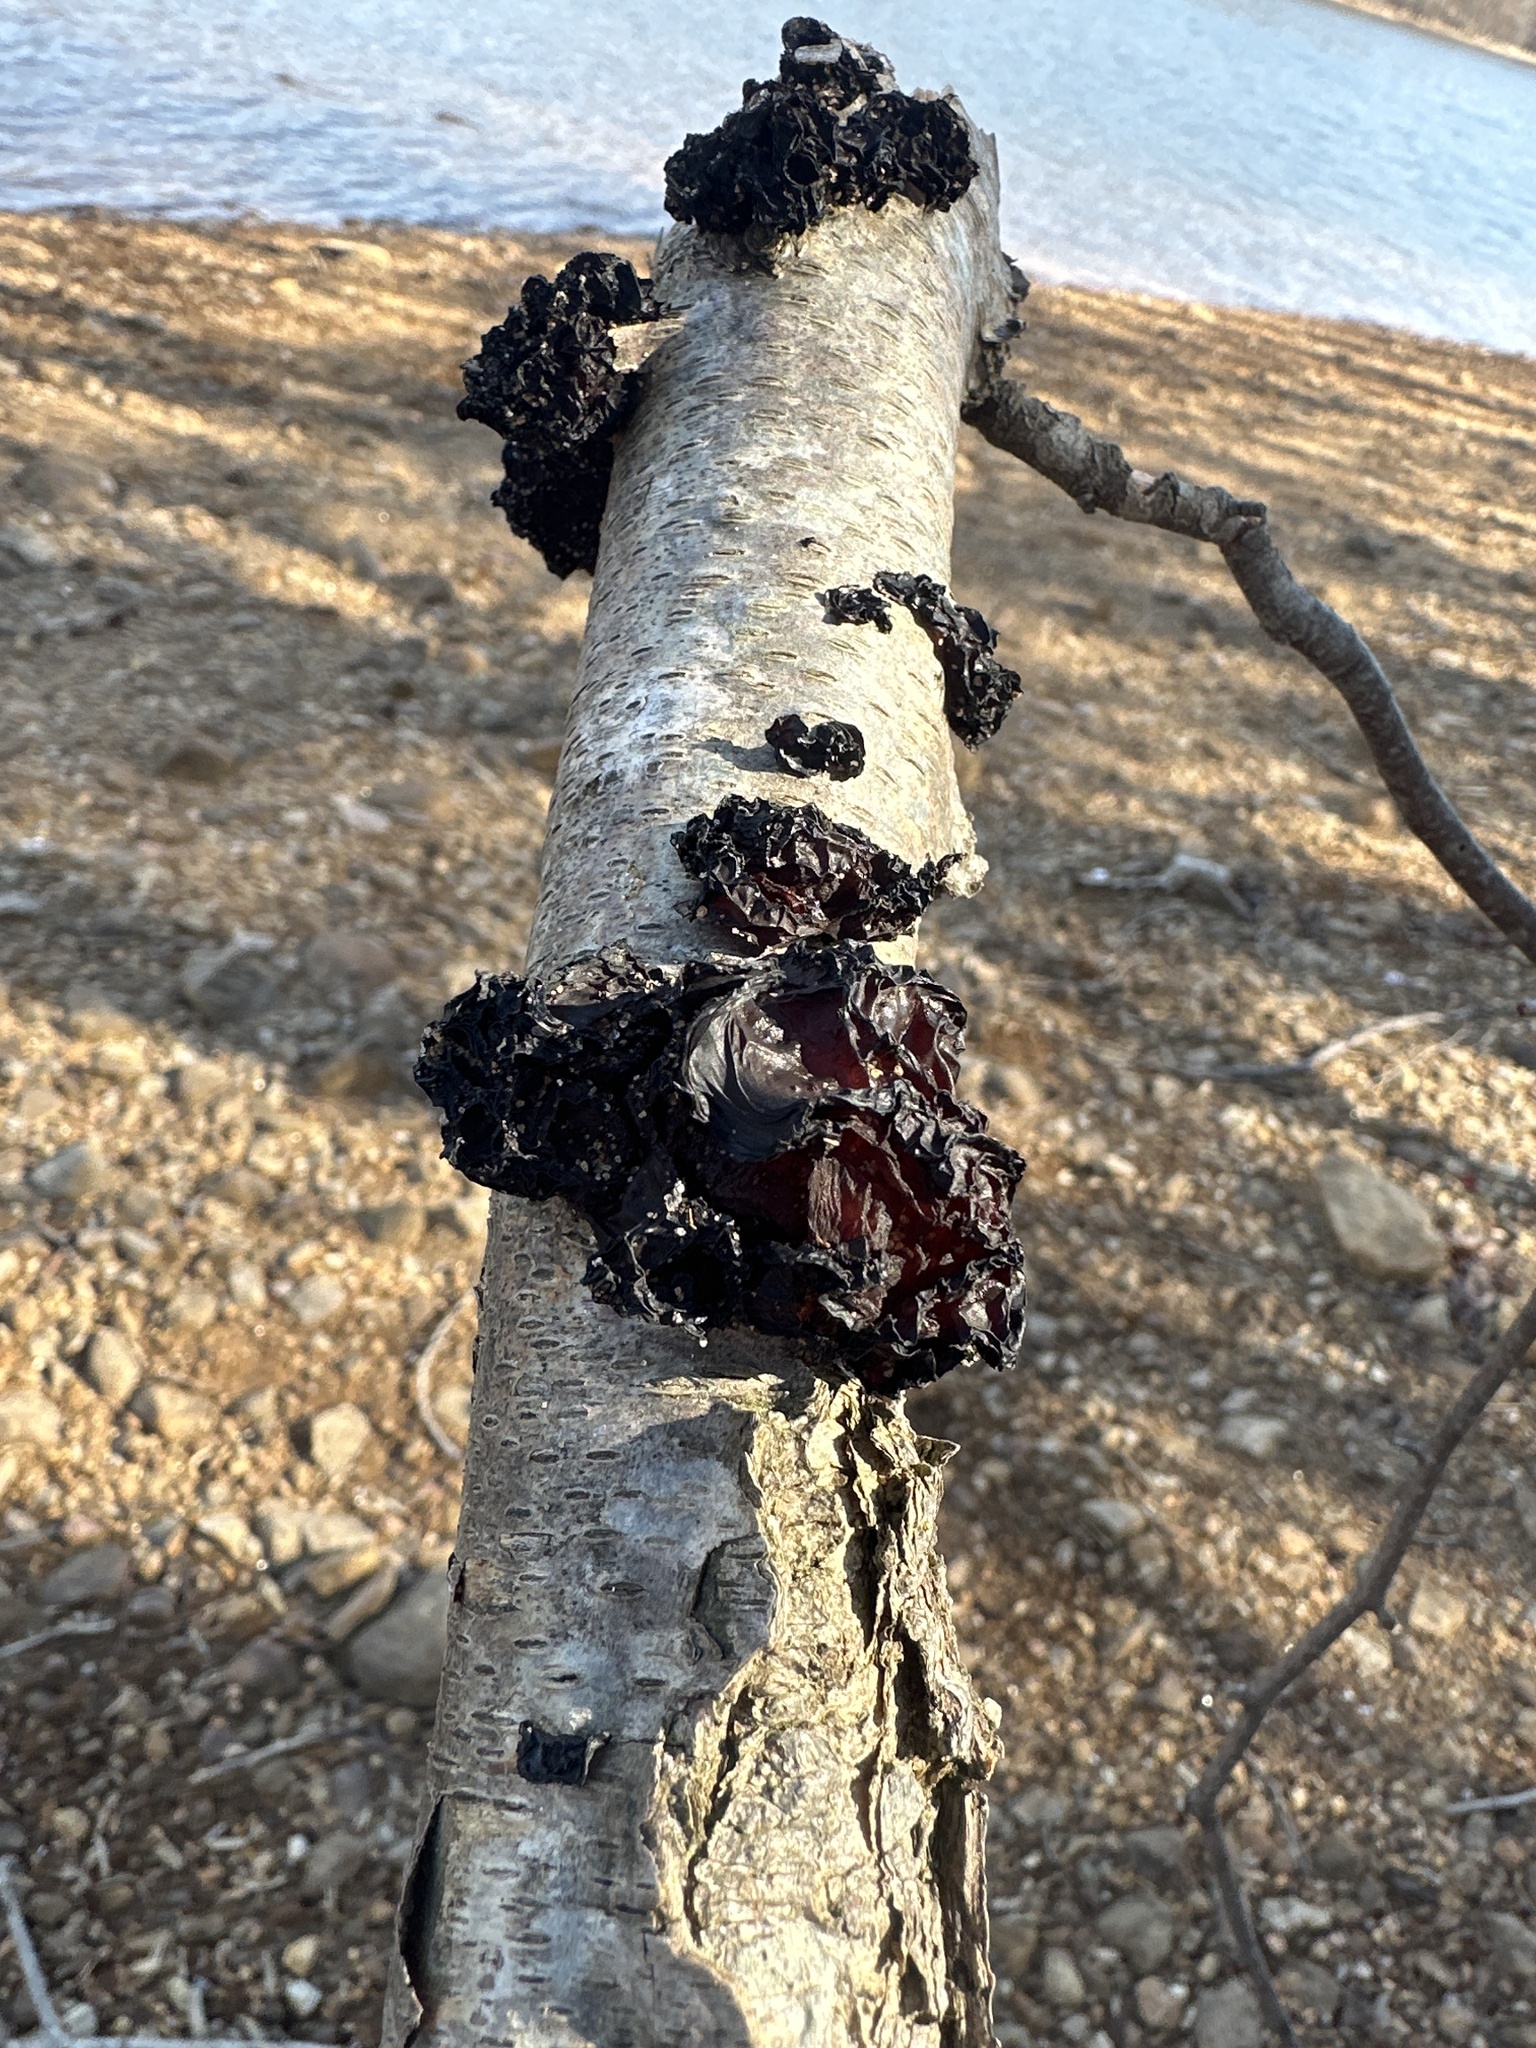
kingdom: Fungi
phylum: Basidiomycota
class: Agaricomycetes
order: Auriculariales
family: Auriculariaceae
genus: Exidia
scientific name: Exidia
